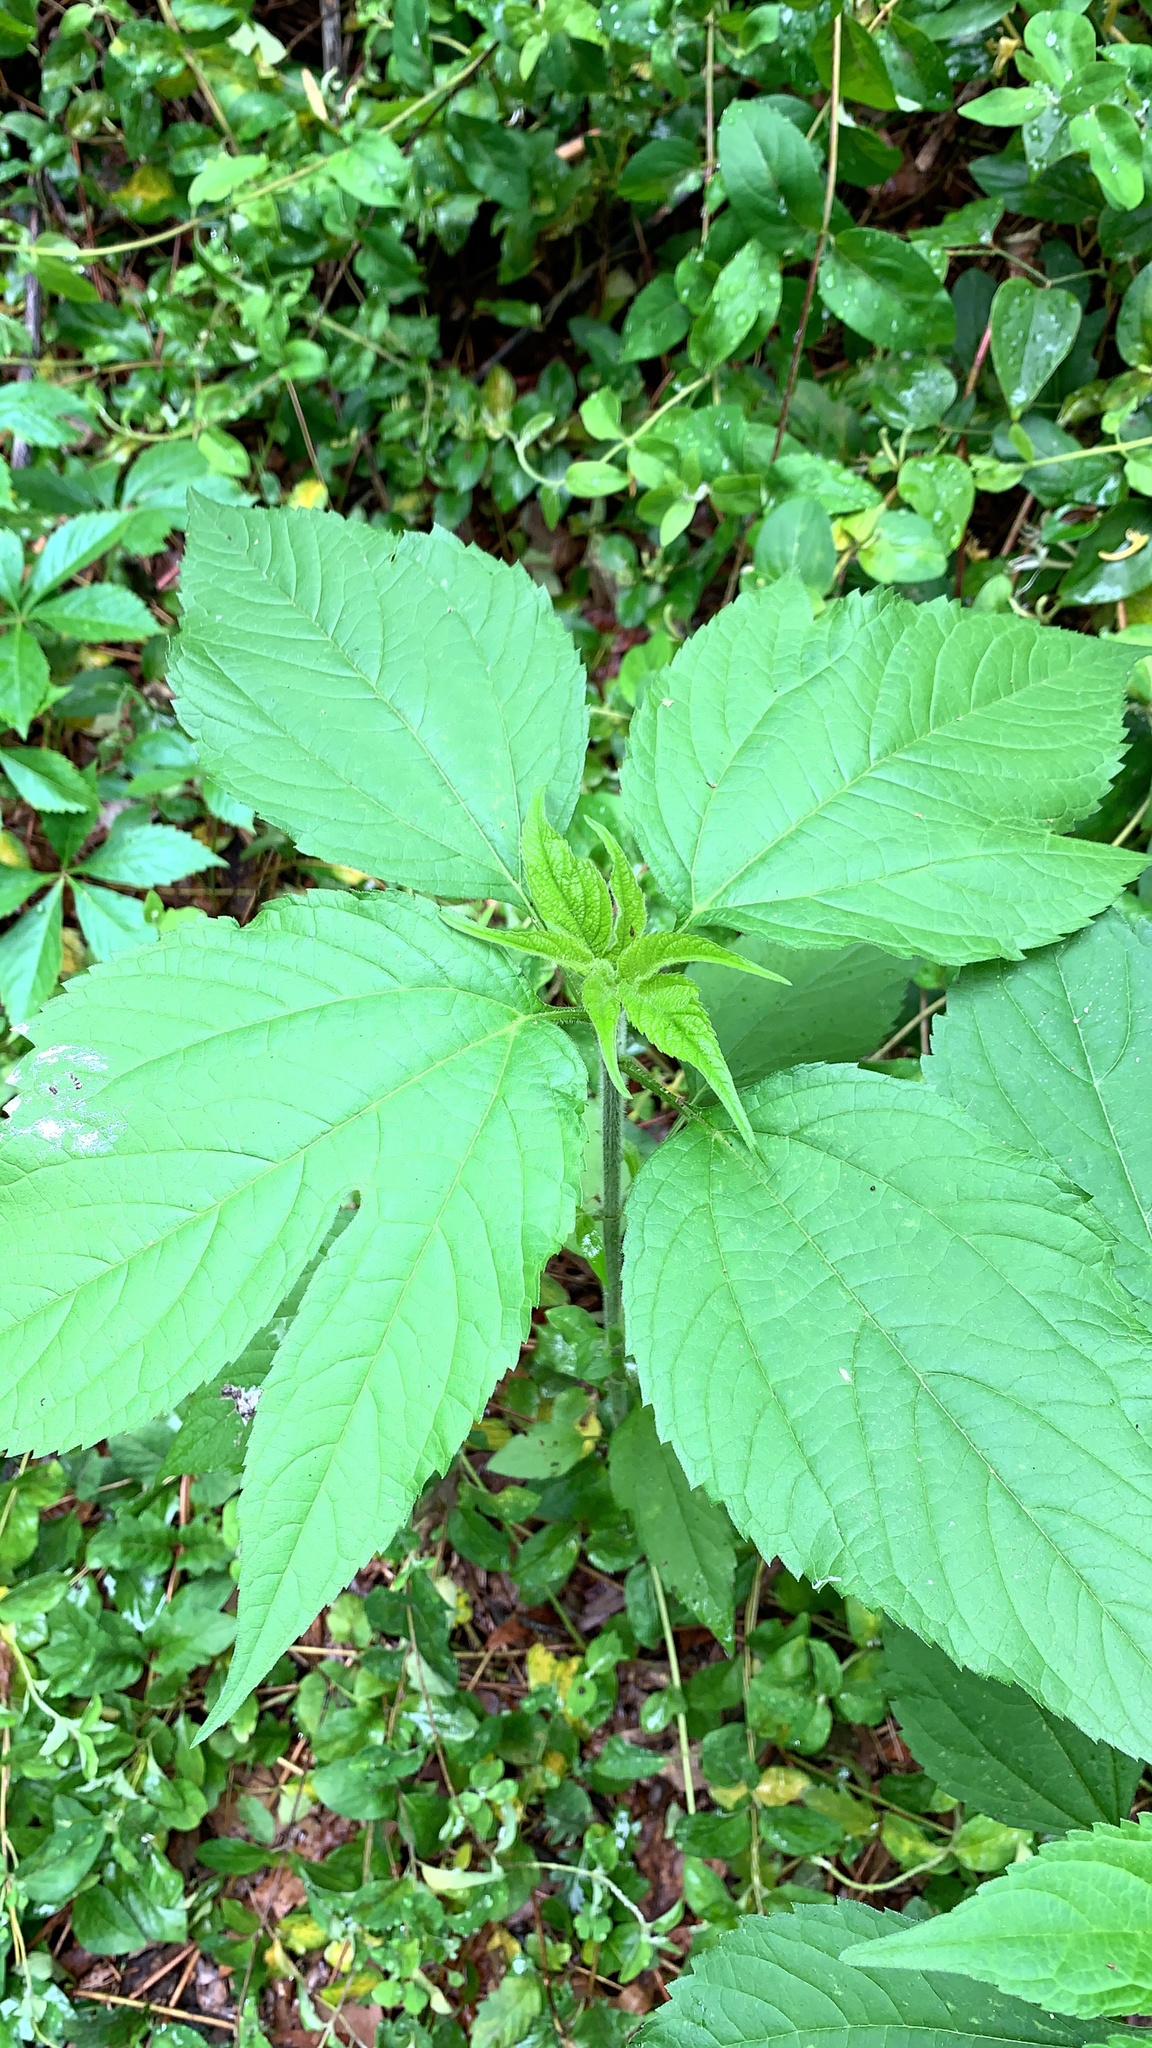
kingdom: Plantae
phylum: Tracheophyta
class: Magnoliopsida
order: Asterales
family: Asteraceae
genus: Ambrosia
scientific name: Ambrosia trifida
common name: Giant ragweed
